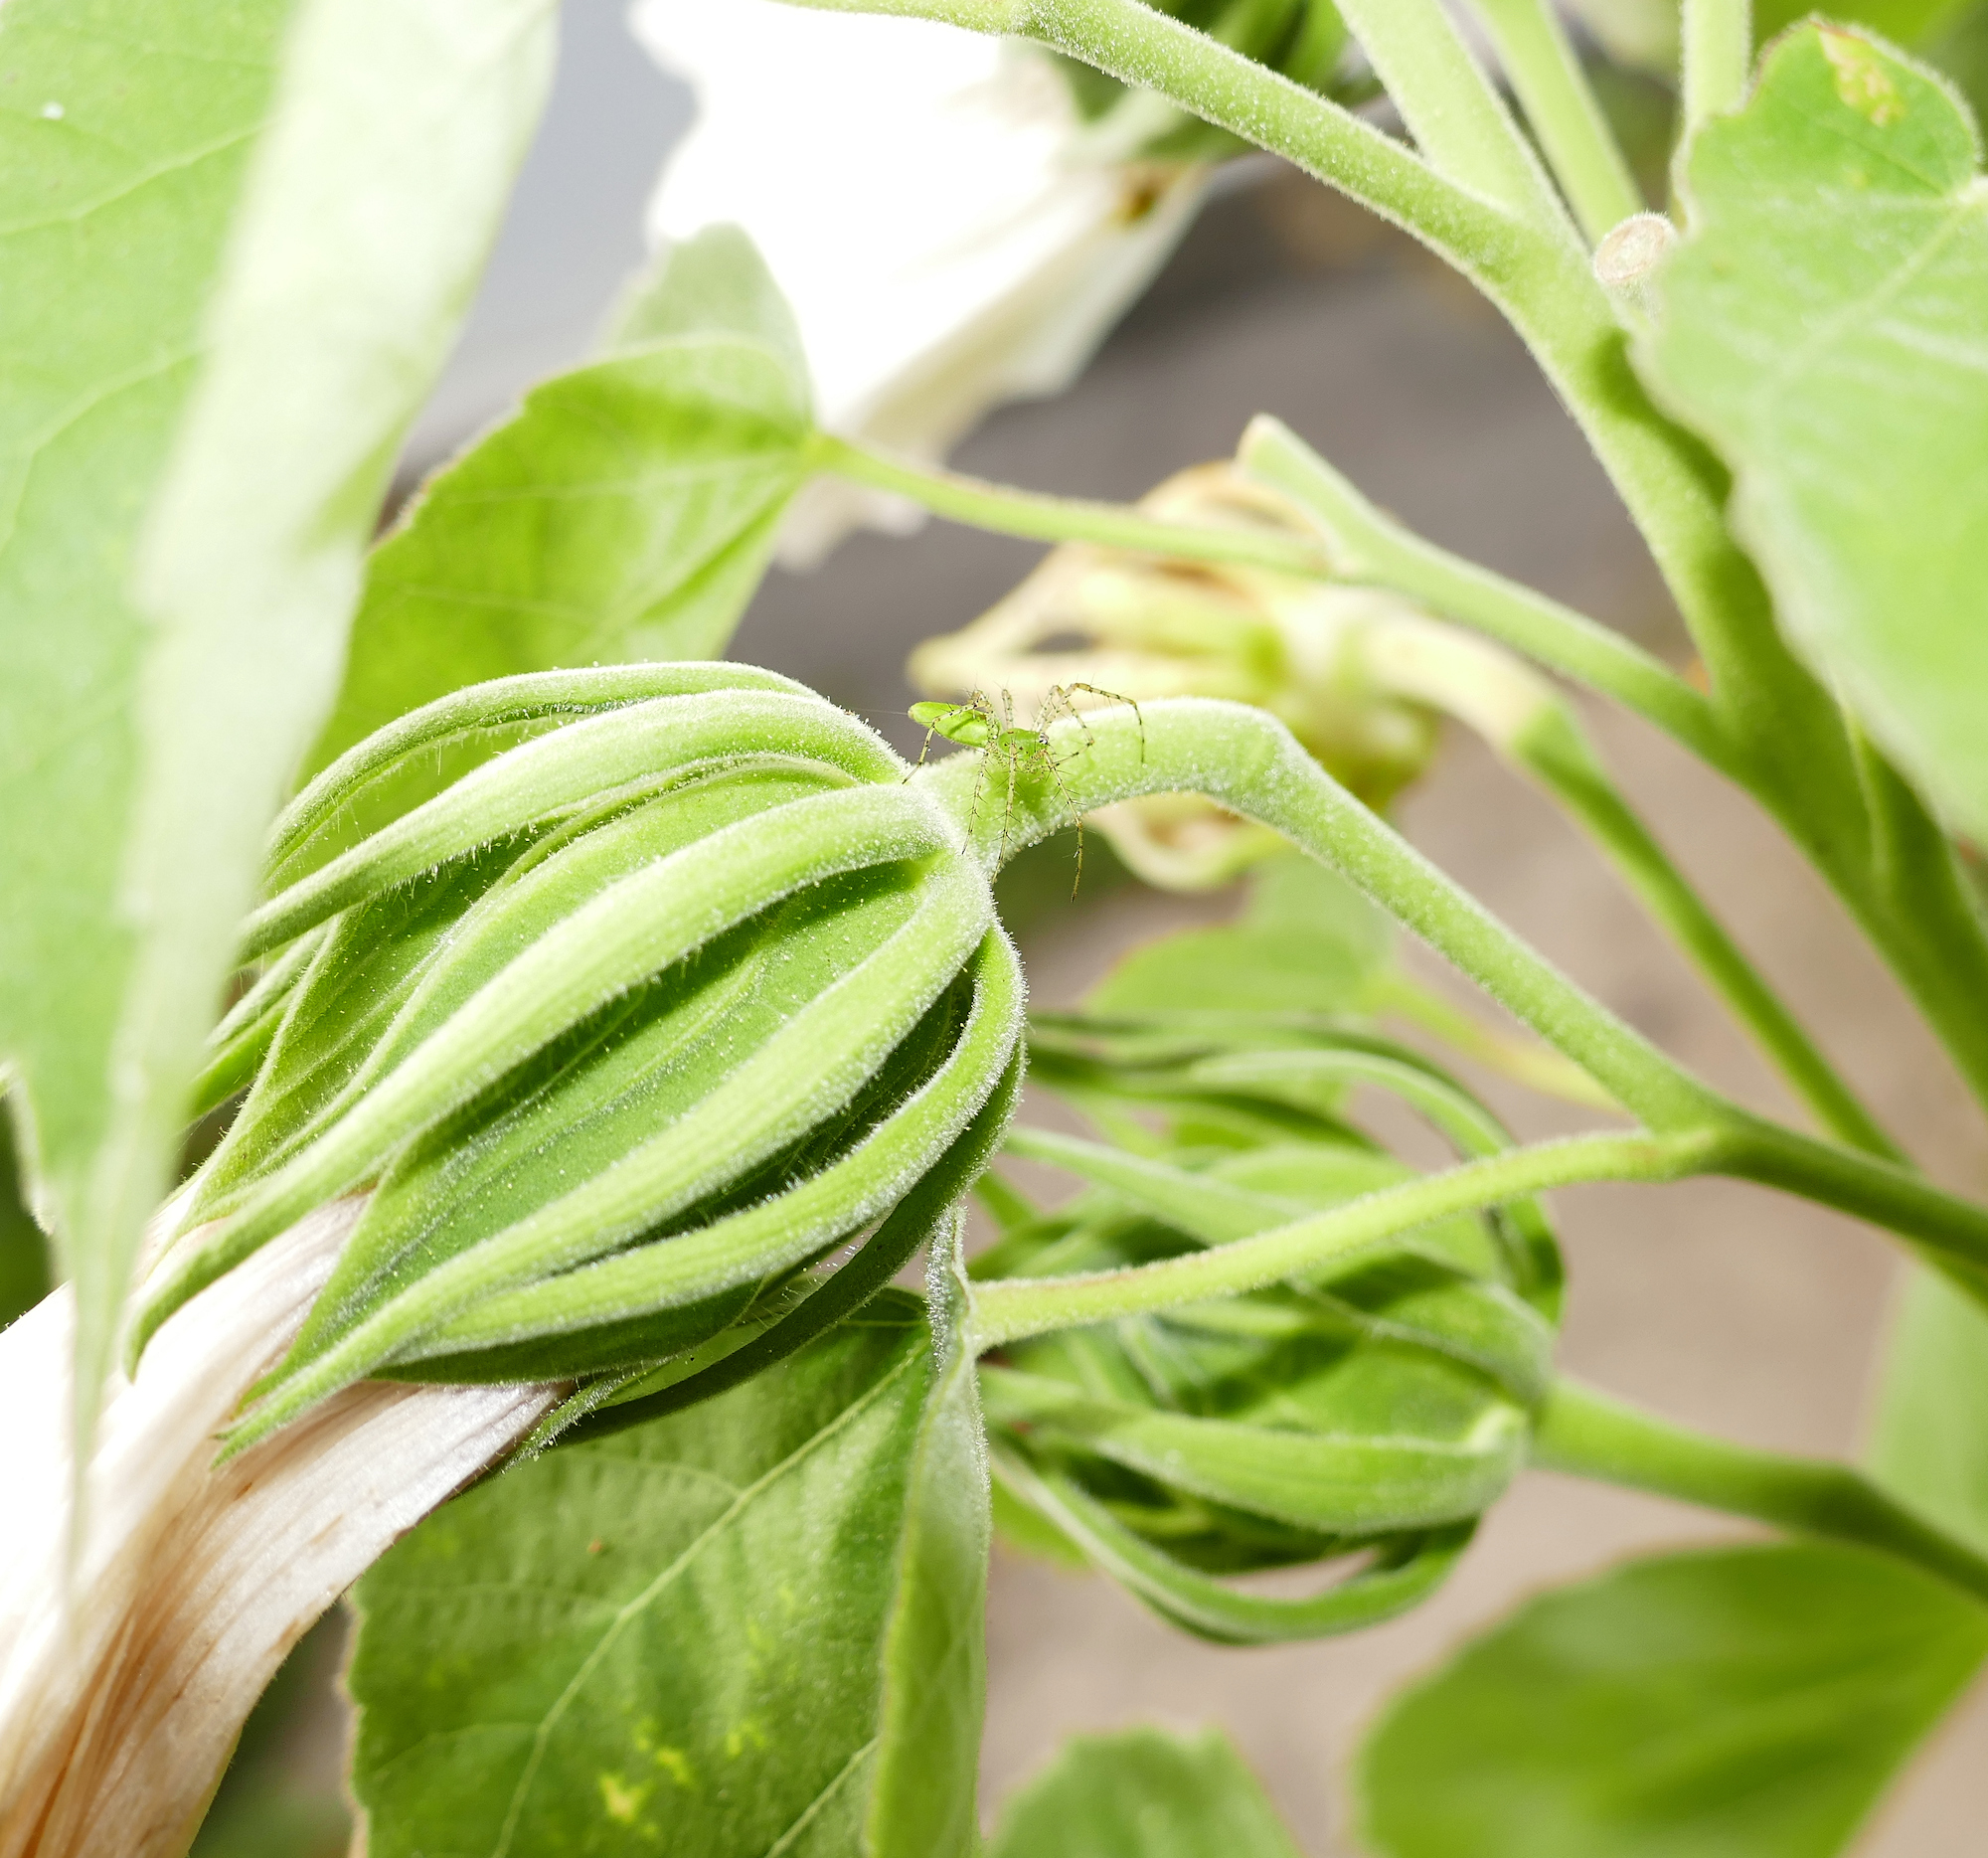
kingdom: Plantae
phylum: Tracheophyta
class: Magnoliopsida
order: Malvales
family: Malvaceae
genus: Hibiscus
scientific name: Hibiscus moscheutos
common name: Common rose-mallow
